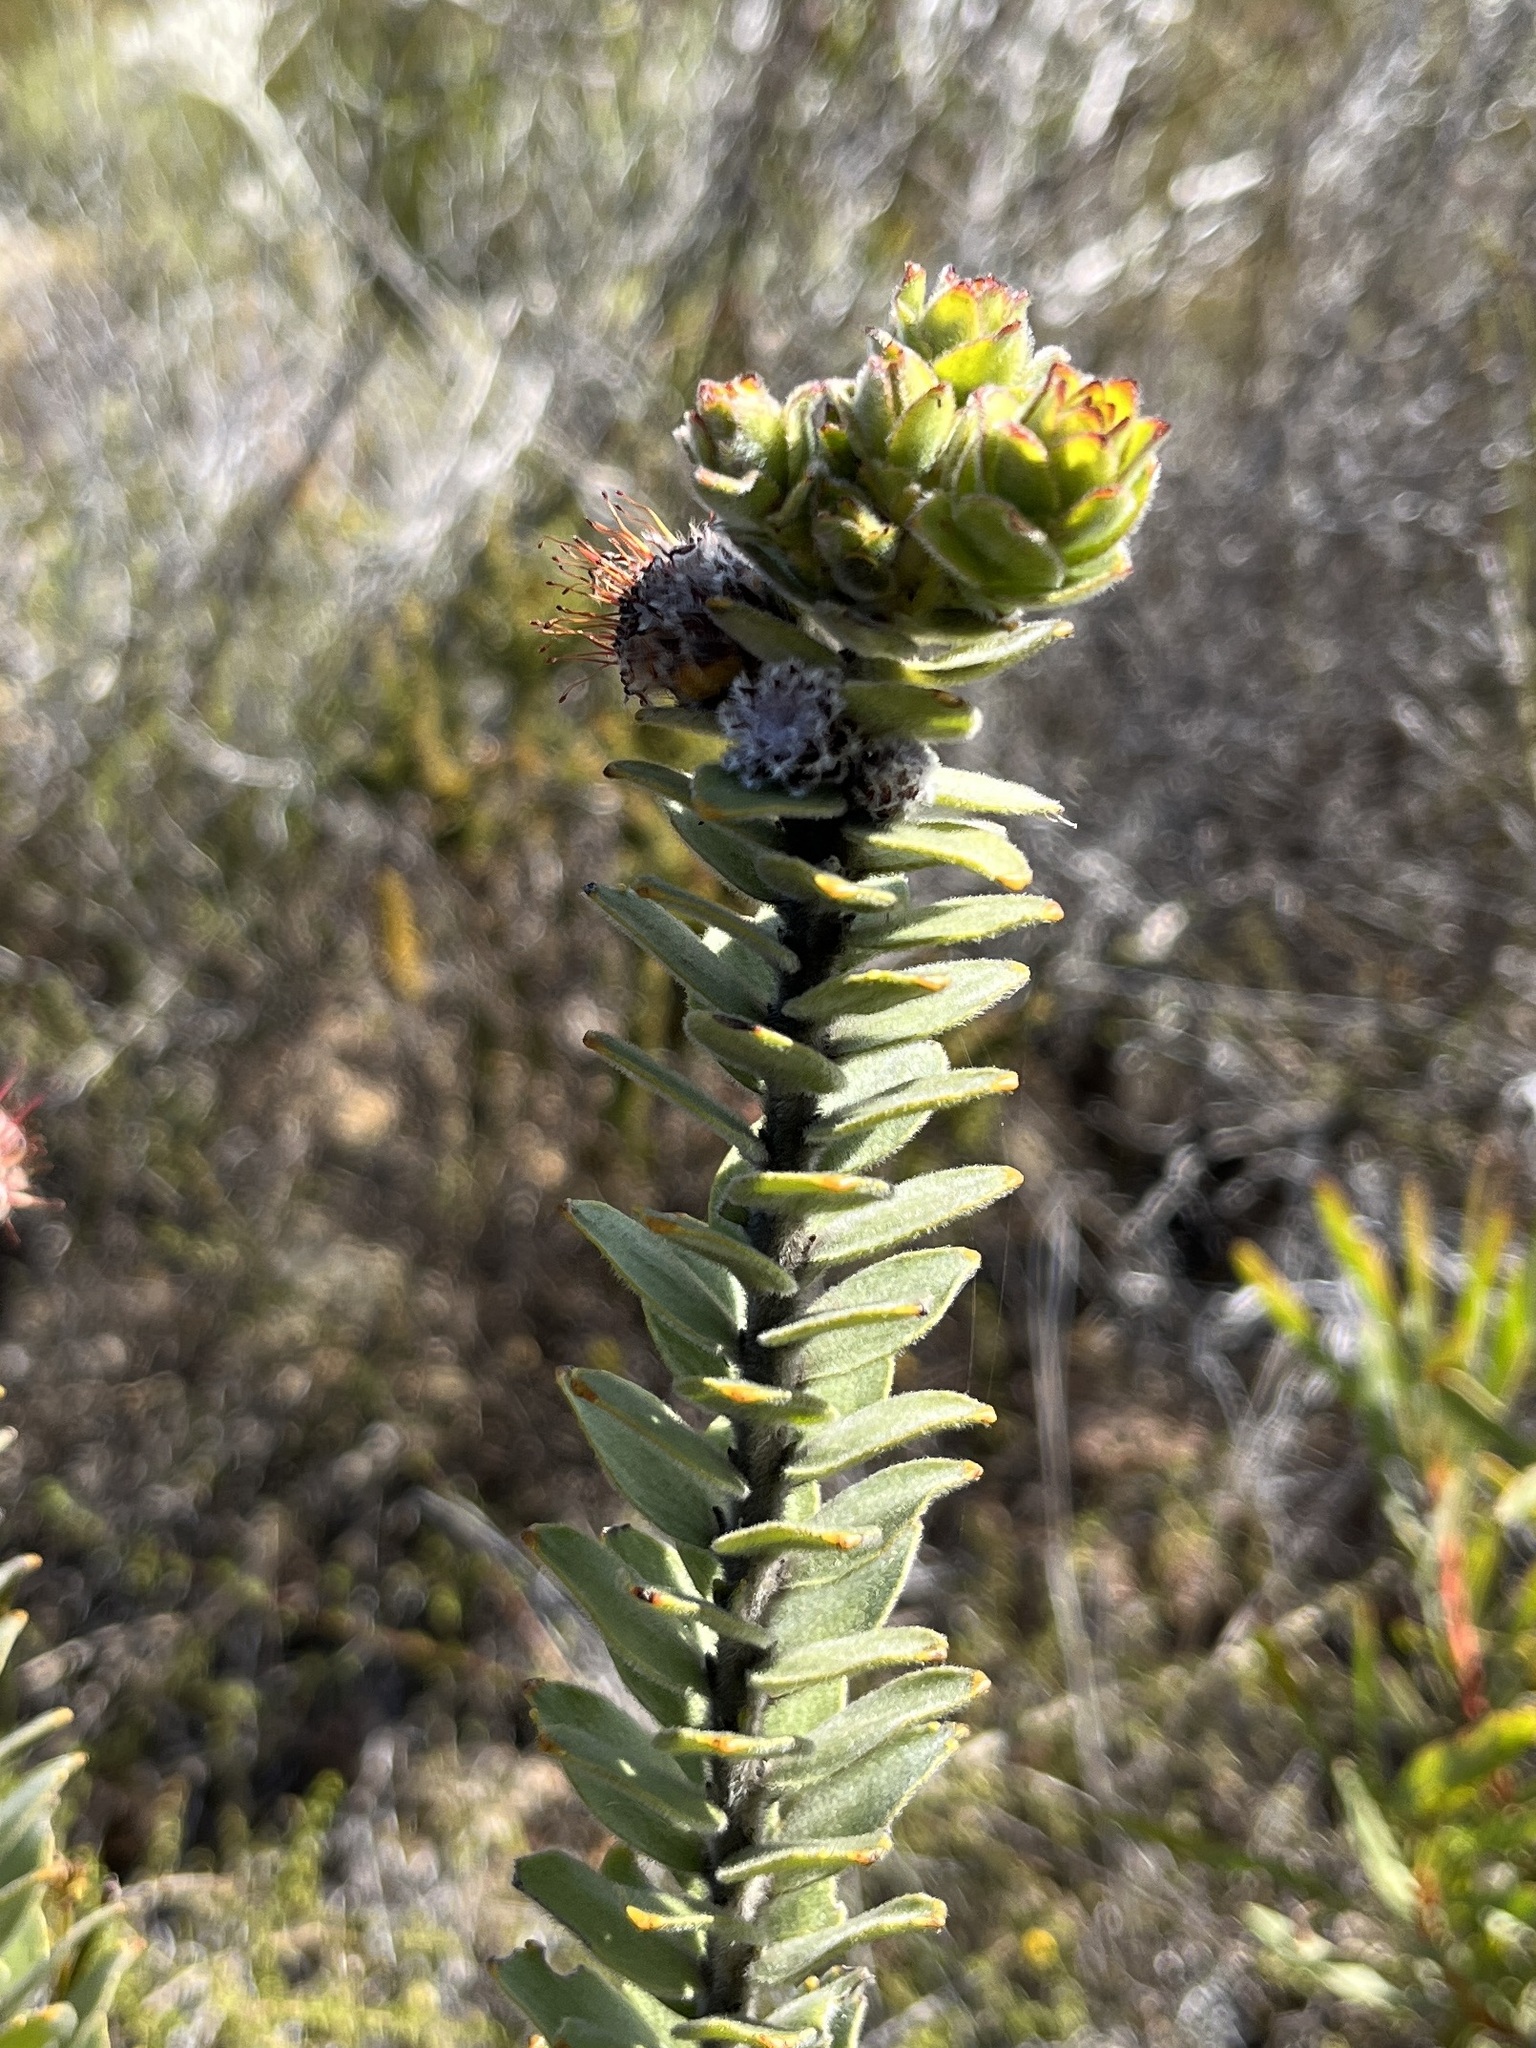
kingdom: Plantae
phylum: Tracheophyta
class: Magnoliopsida
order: Proteales
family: Proteaceae
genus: Leucospermum
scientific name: Leucospermum truncatulum
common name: Oval-leaf pincushion
